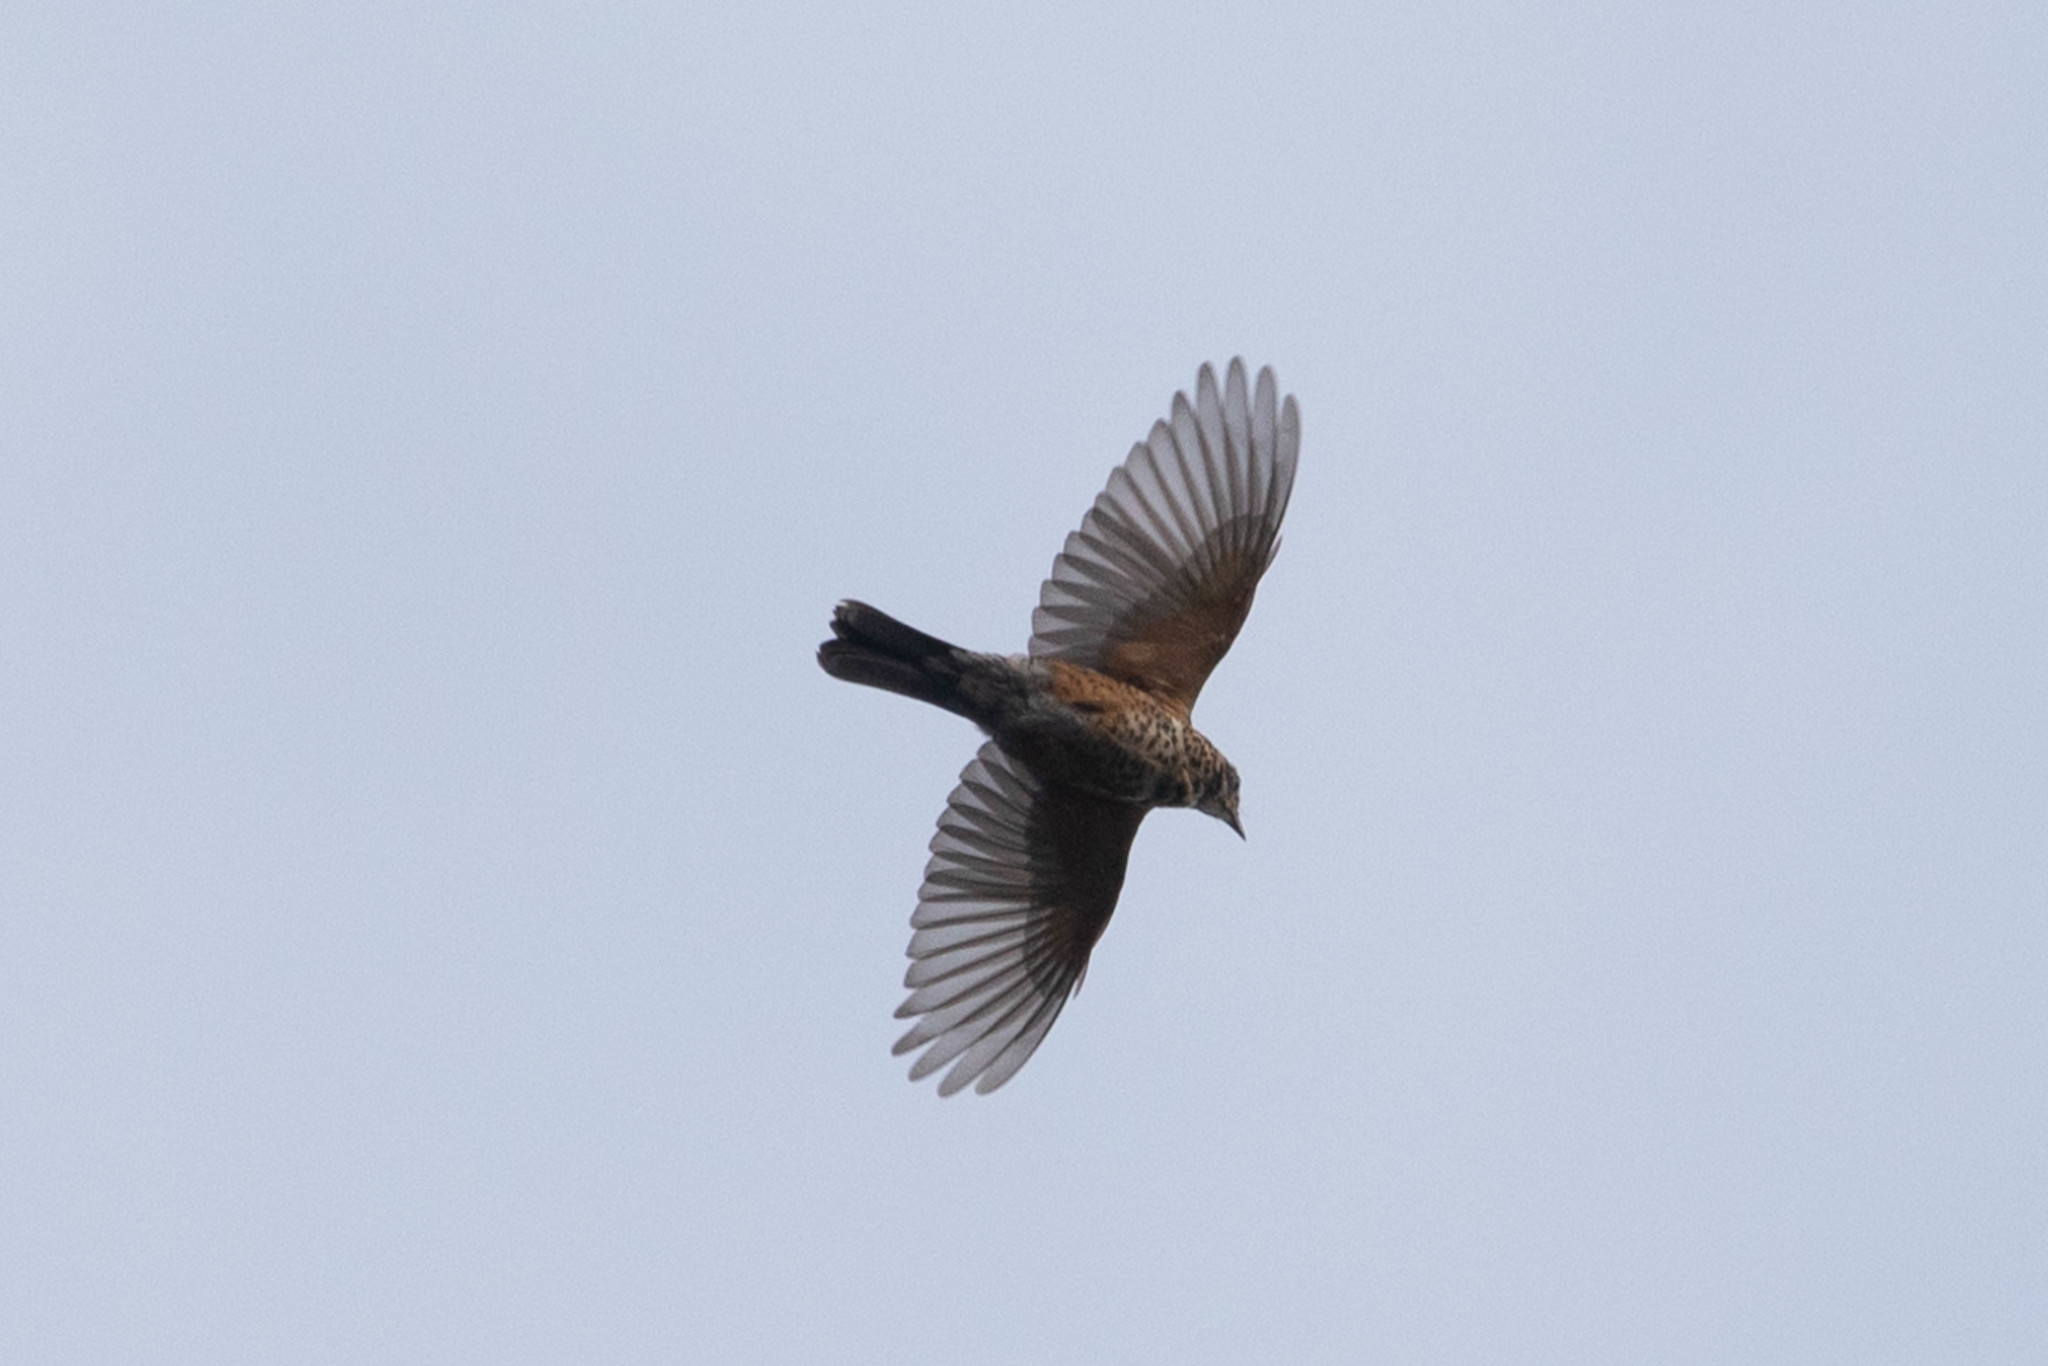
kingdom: Animalia
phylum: Chordata
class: Aves
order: Passeriformes
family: Turdidae
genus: Turdus
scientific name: Turdus migratorius
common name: American robin
